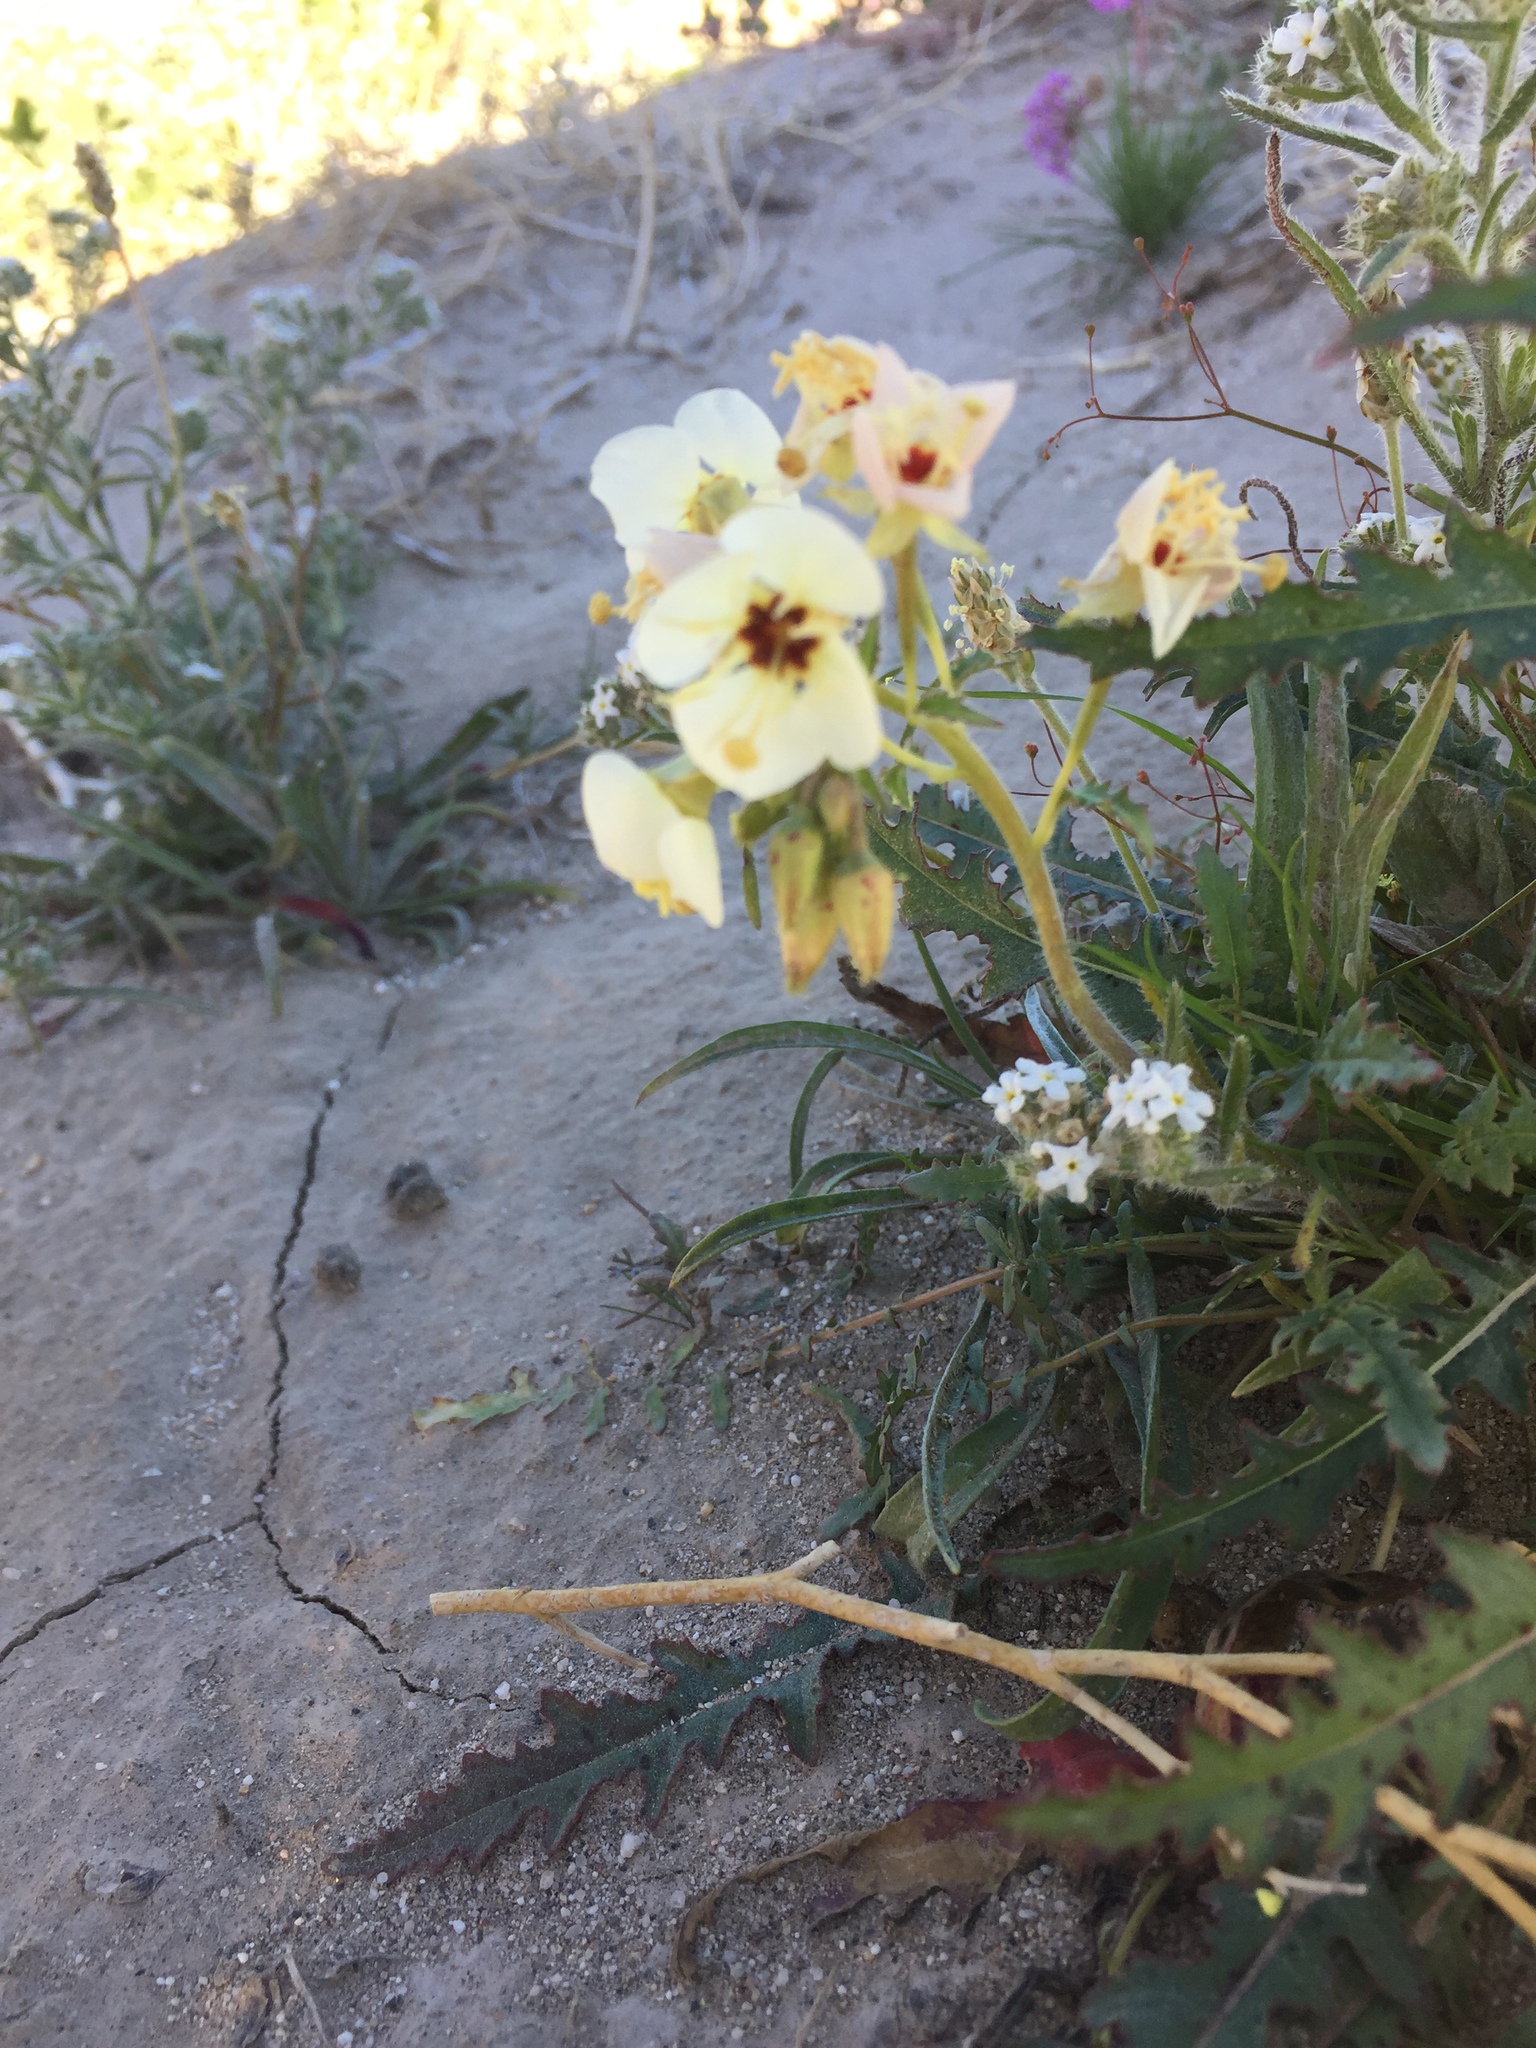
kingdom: Plantae
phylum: Tracheophyta
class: Magnoliopsida
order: Myrtales
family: Onagraceae
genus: Chylismia
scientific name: Chylismia claviformis
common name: Browneyes
